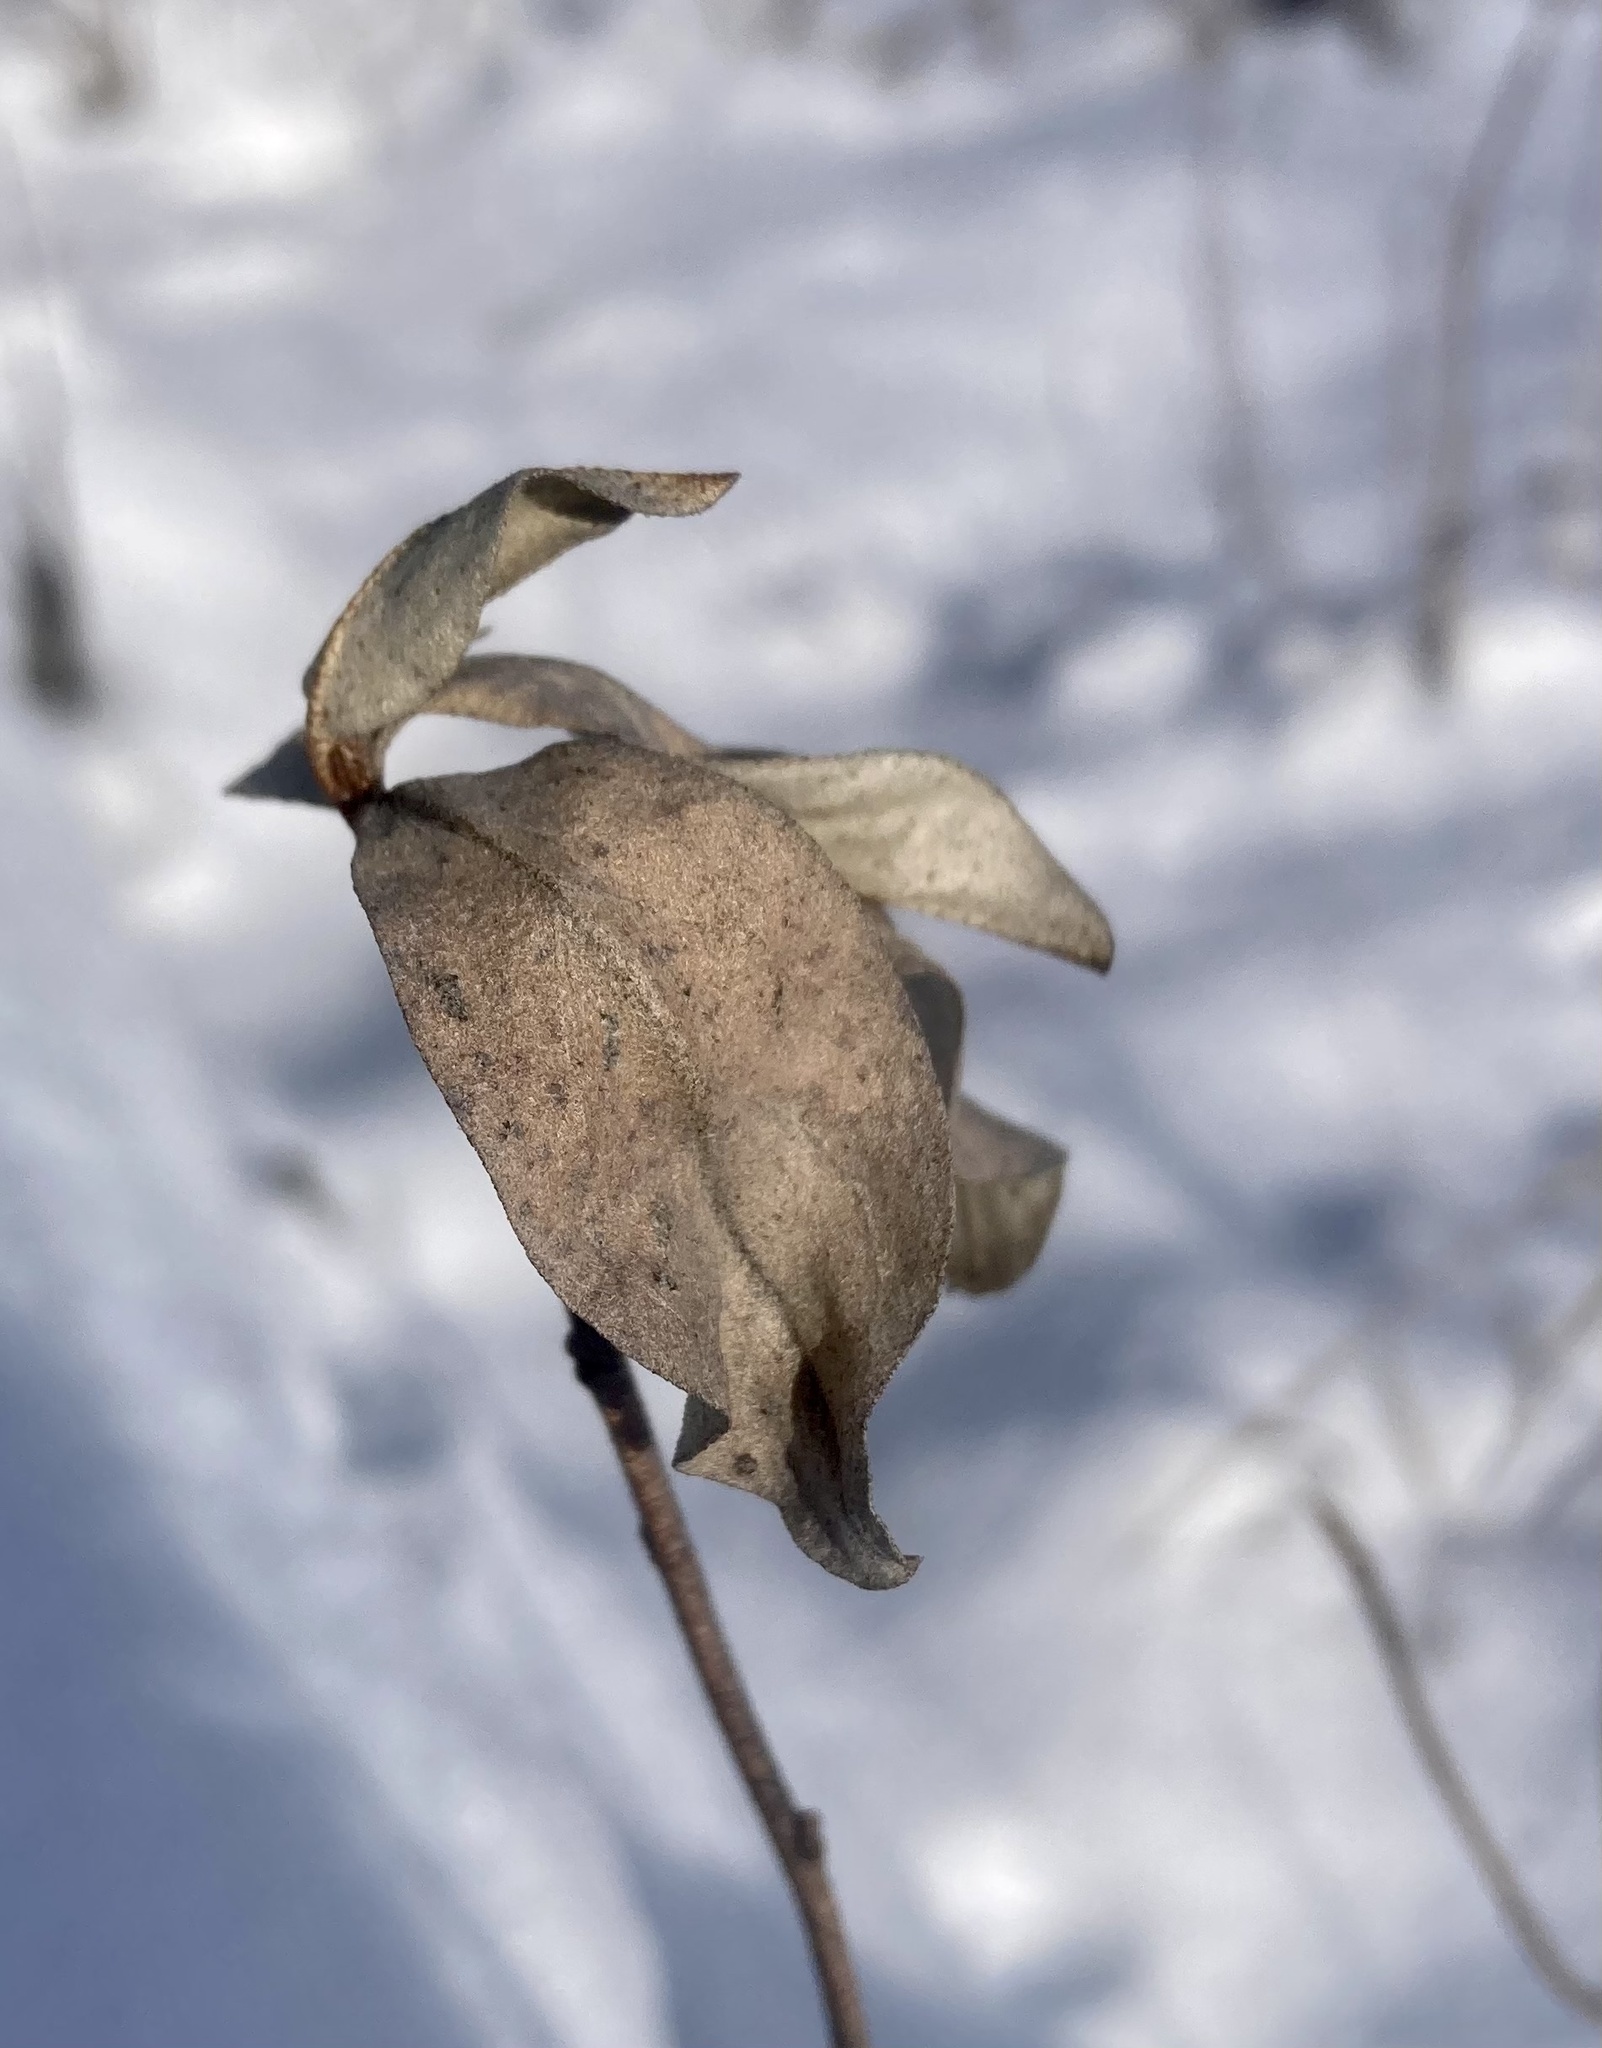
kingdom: Plantae
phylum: Tracheophyta
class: Magnoliopsida
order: Rosales
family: Elaeagnaceae
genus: Elaeagnus
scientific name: Elaeagnus commutata
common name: Silverberry
